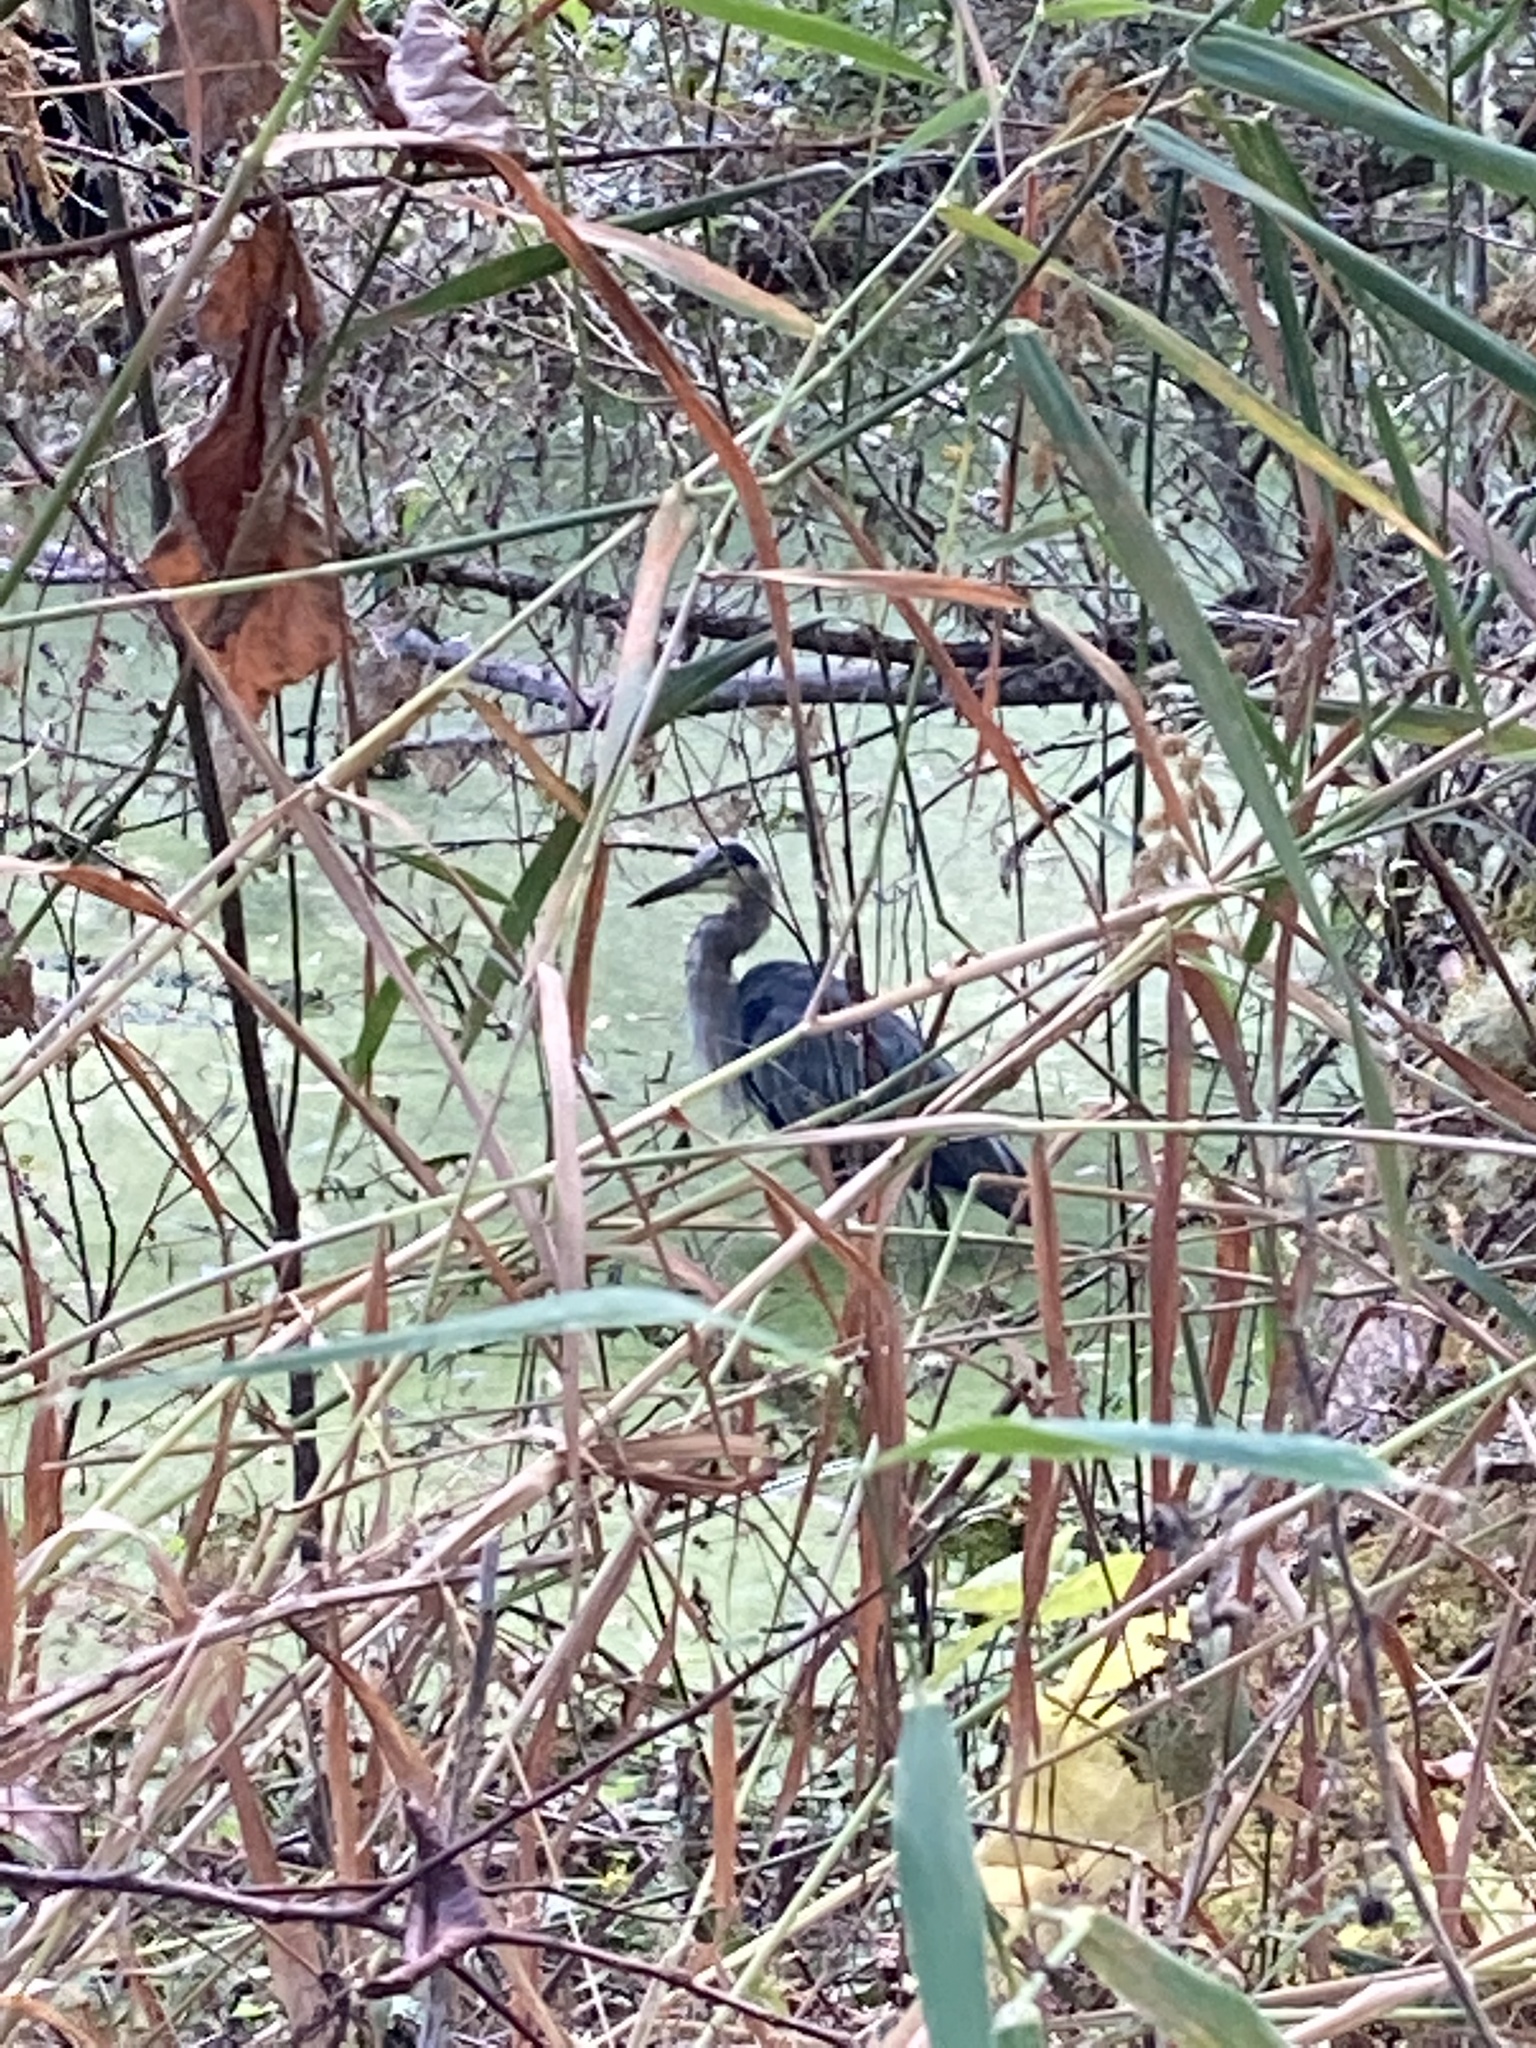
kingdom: Animalia
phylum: Chordata
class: Aves
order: Pelecaniformes
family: Ardeidae
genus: Ardea
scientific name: Ardea herodias
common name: Great blue heron
